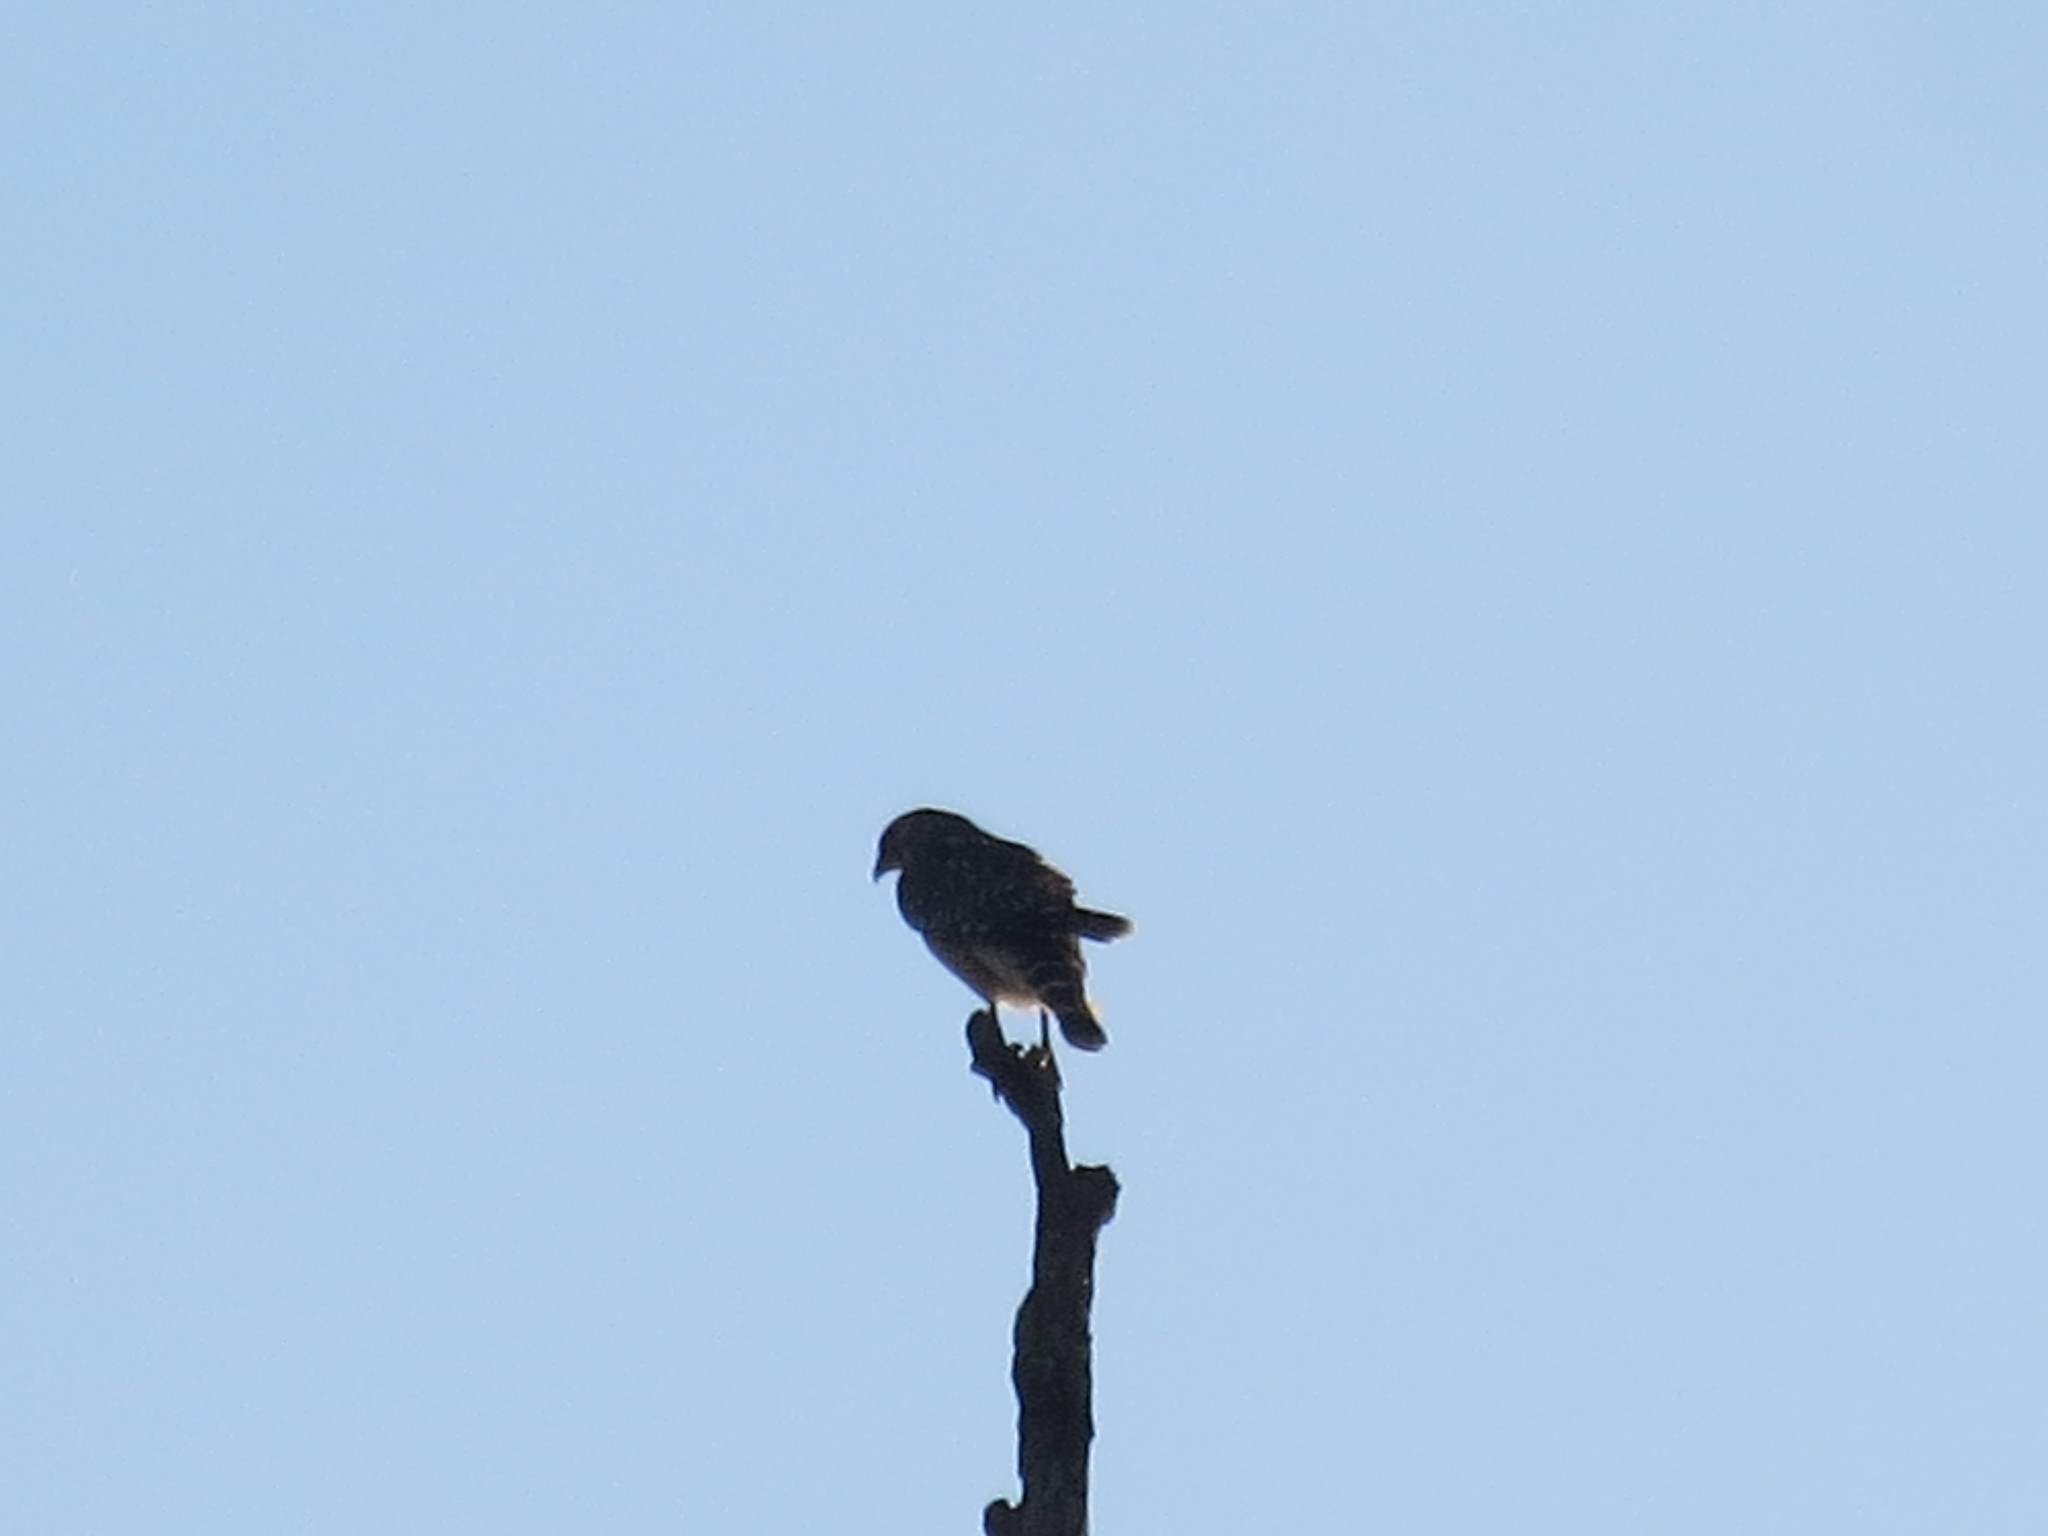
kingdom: Animalia
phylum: Chordata
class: Aves
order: Accipitriformes
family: Accipitridae
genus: Buteo
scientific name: Buteo lineatus
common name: Red-shouldered hawk
